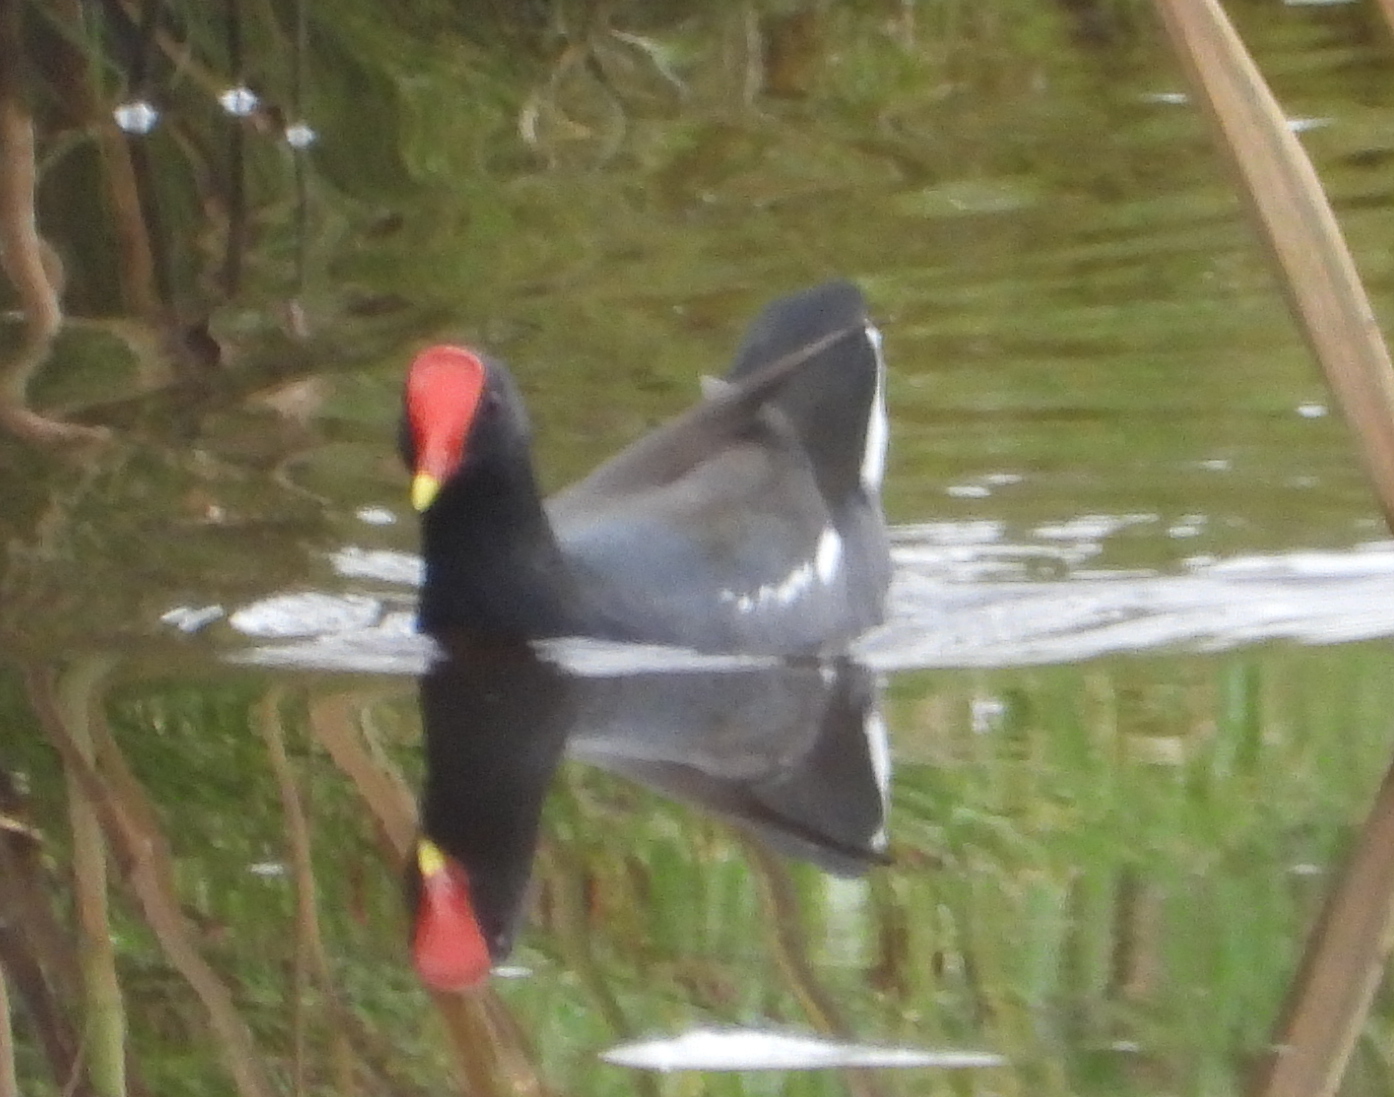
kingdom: Animalia
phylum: Chordata
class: Aves
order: Gruiformes
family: Rallidae
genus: Gallinula
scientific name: Gallinula chloropus
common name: Common moorhen
